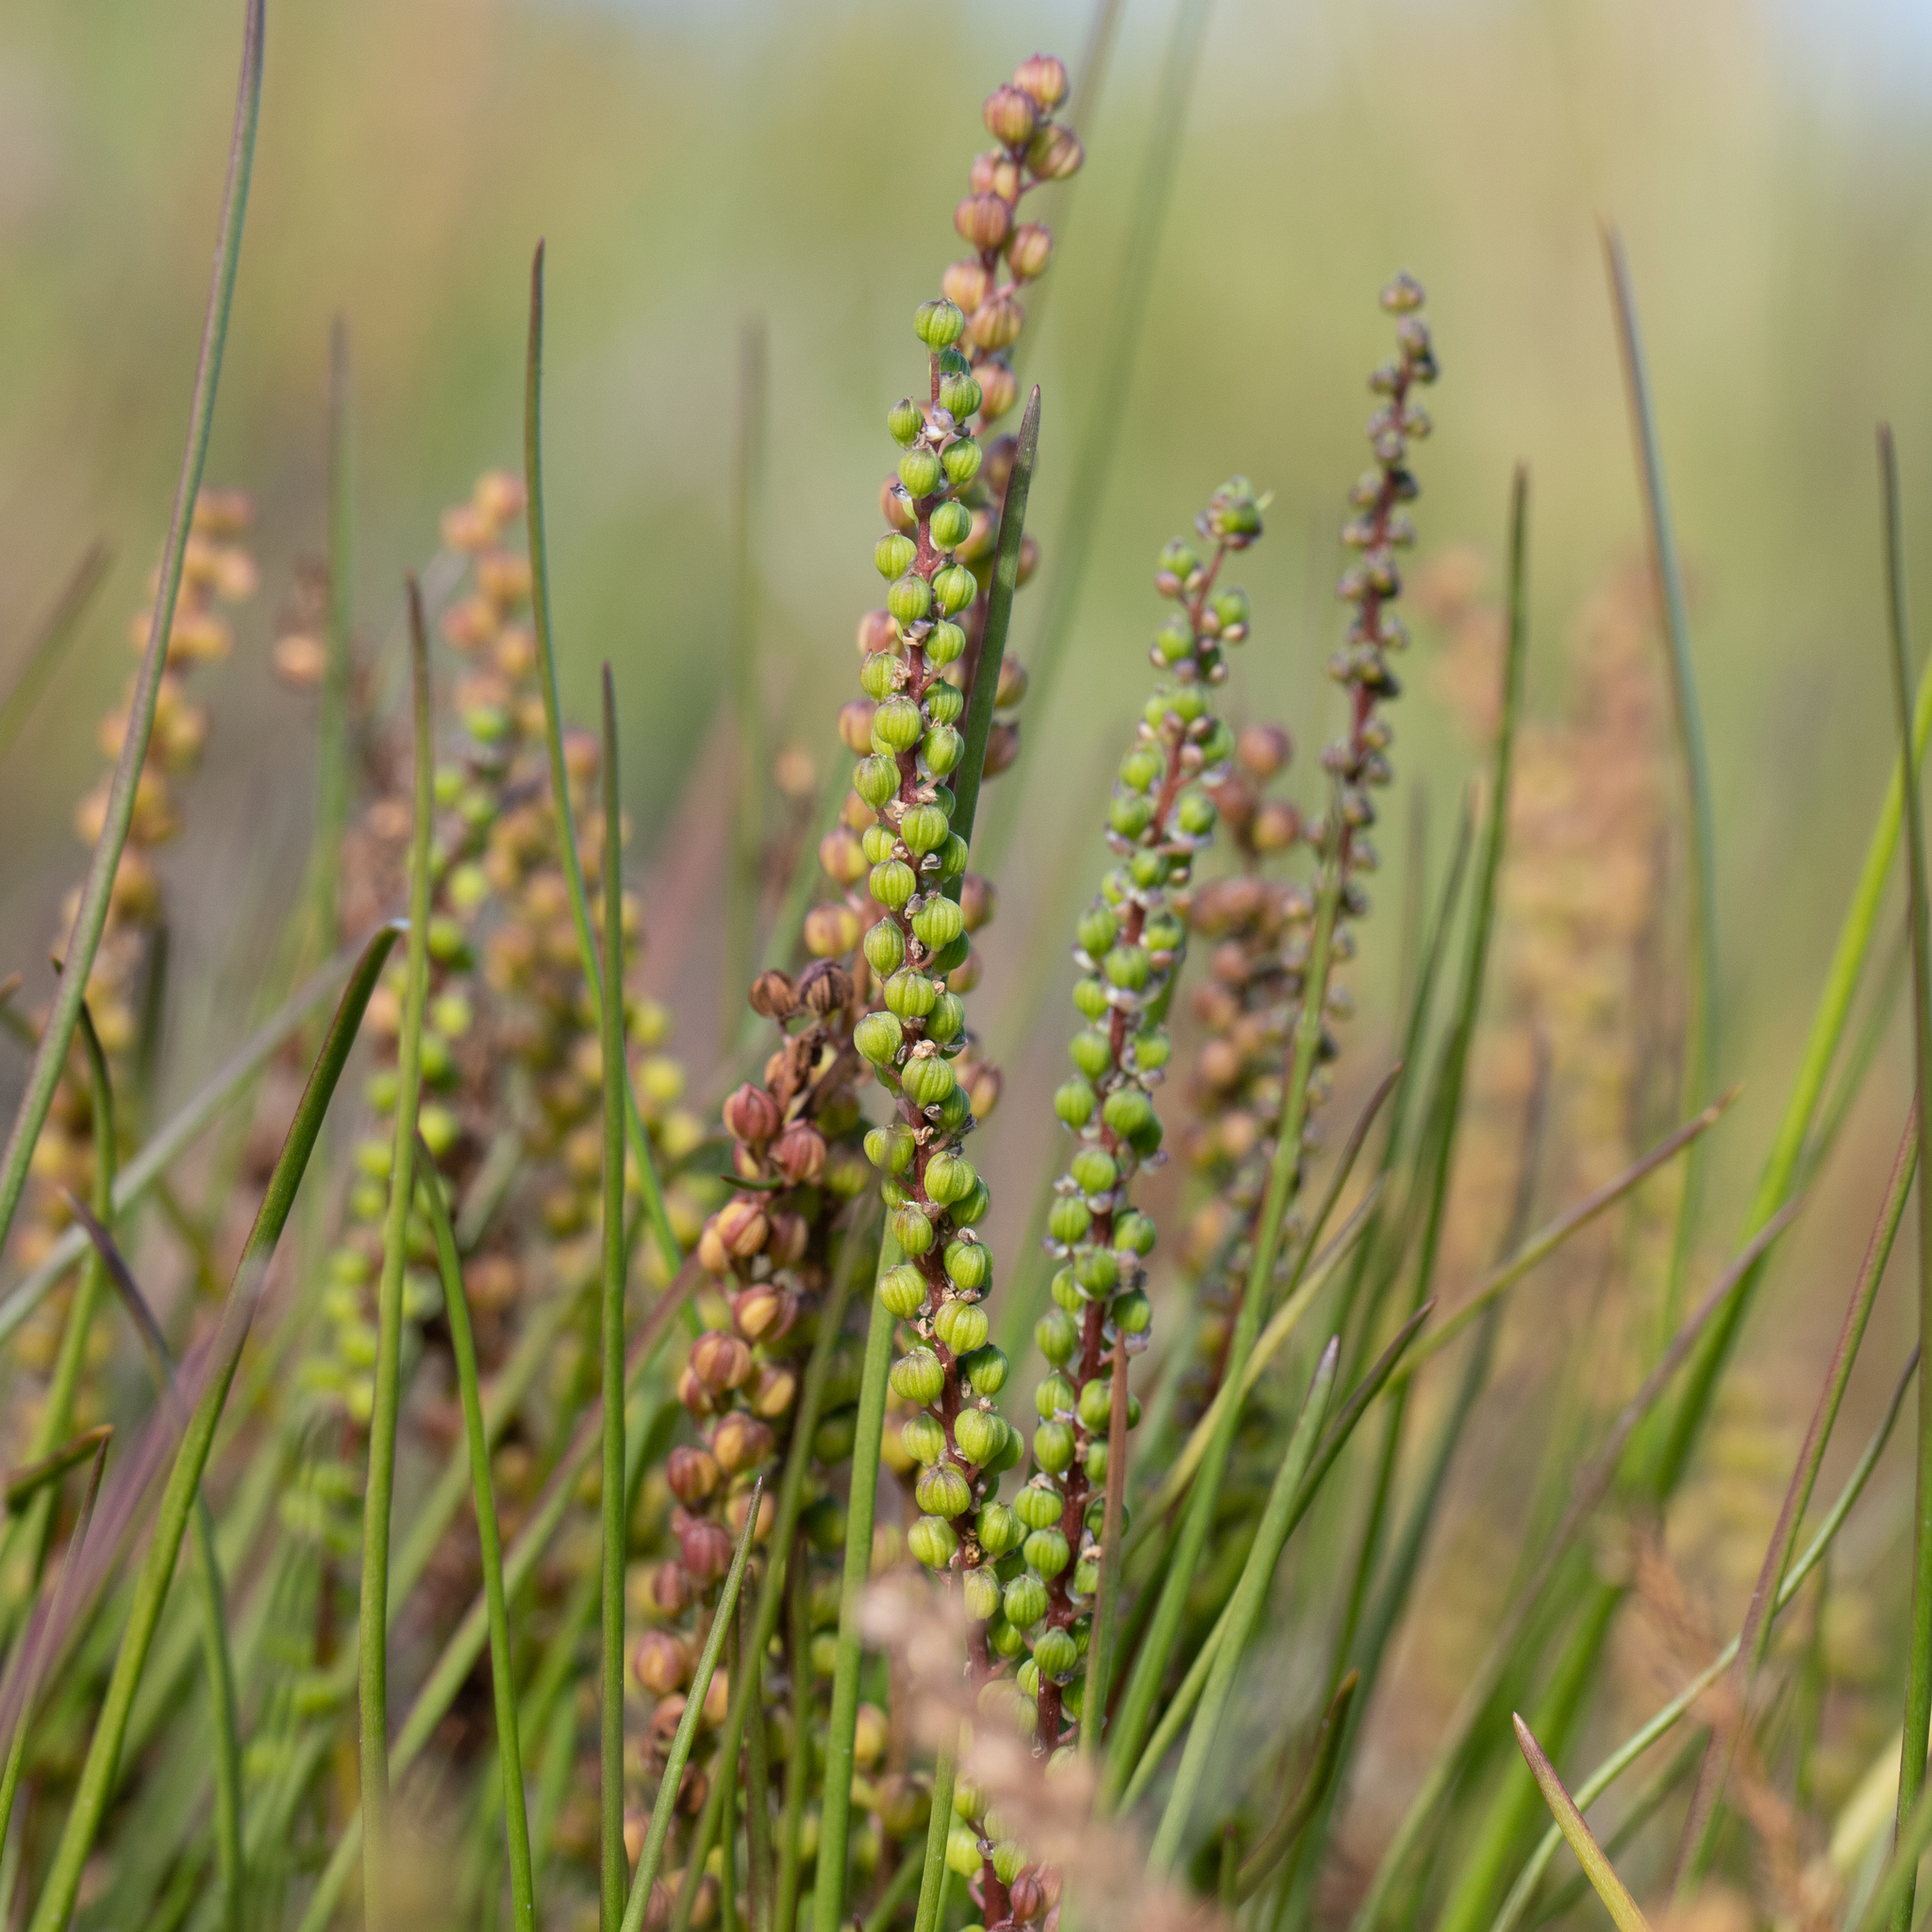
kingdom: Plantae
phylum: Tracheophyta
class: Liliopsida
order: Alismatales
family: Juncaginaceae
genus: Triglochin
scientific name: Triglochin striata
